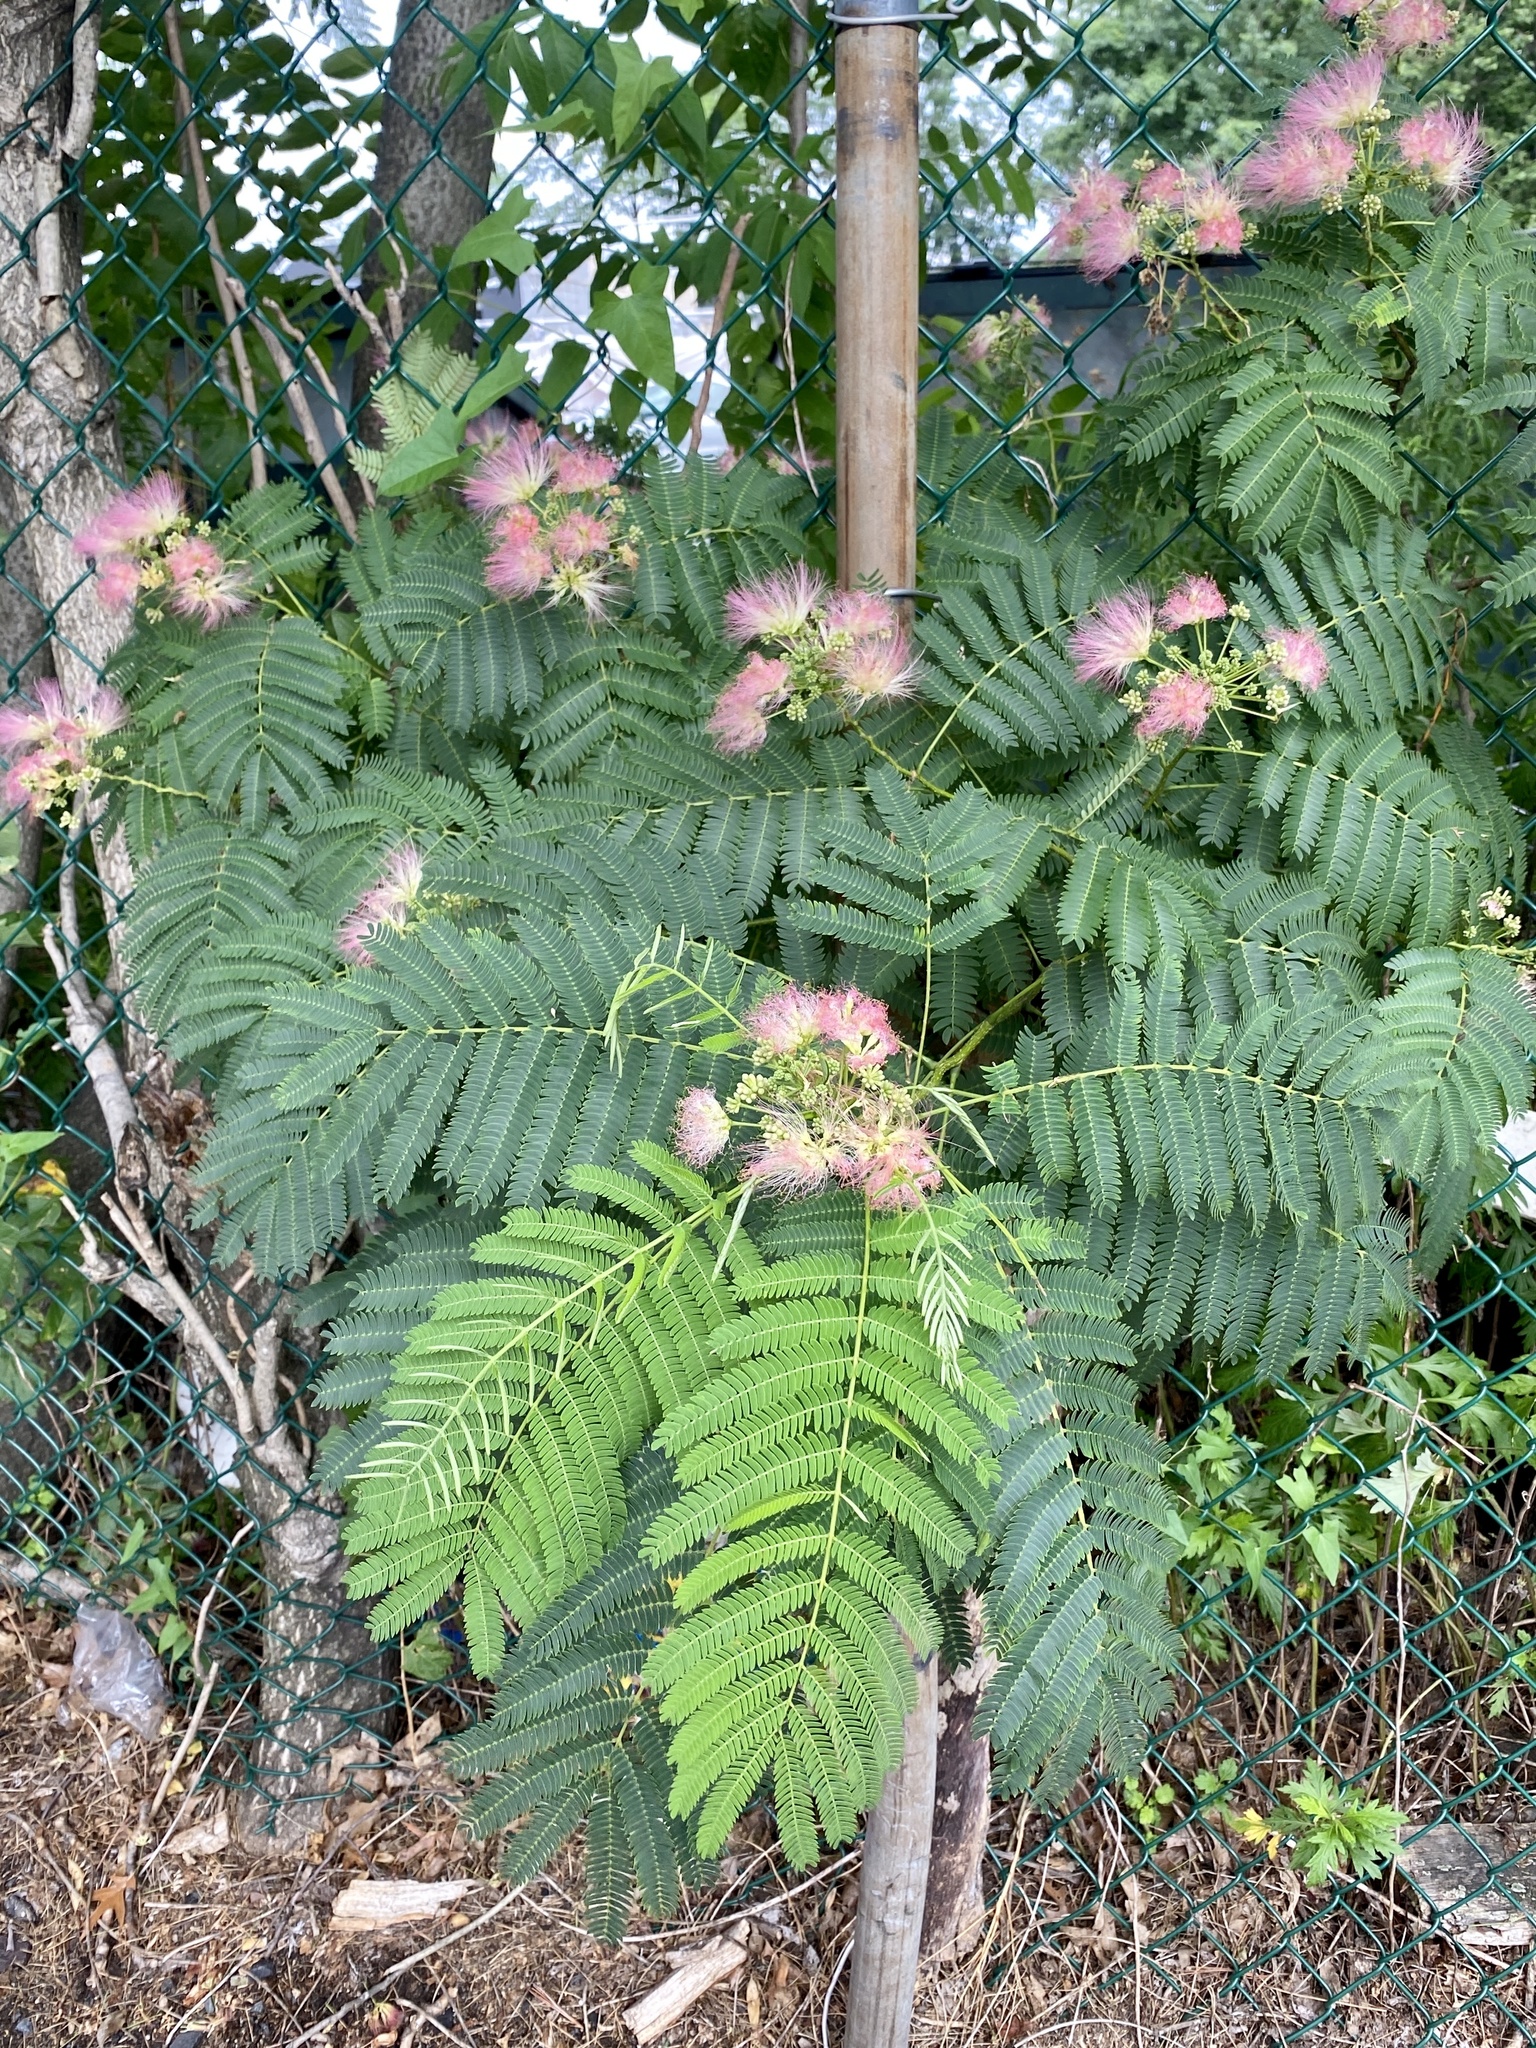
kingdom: Plantae
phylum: Tracheophyta
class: Magnoliopsida
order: Fabales
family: Fabaceae
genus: Albizia
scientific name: Albizia julibrissin
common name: Silktree
